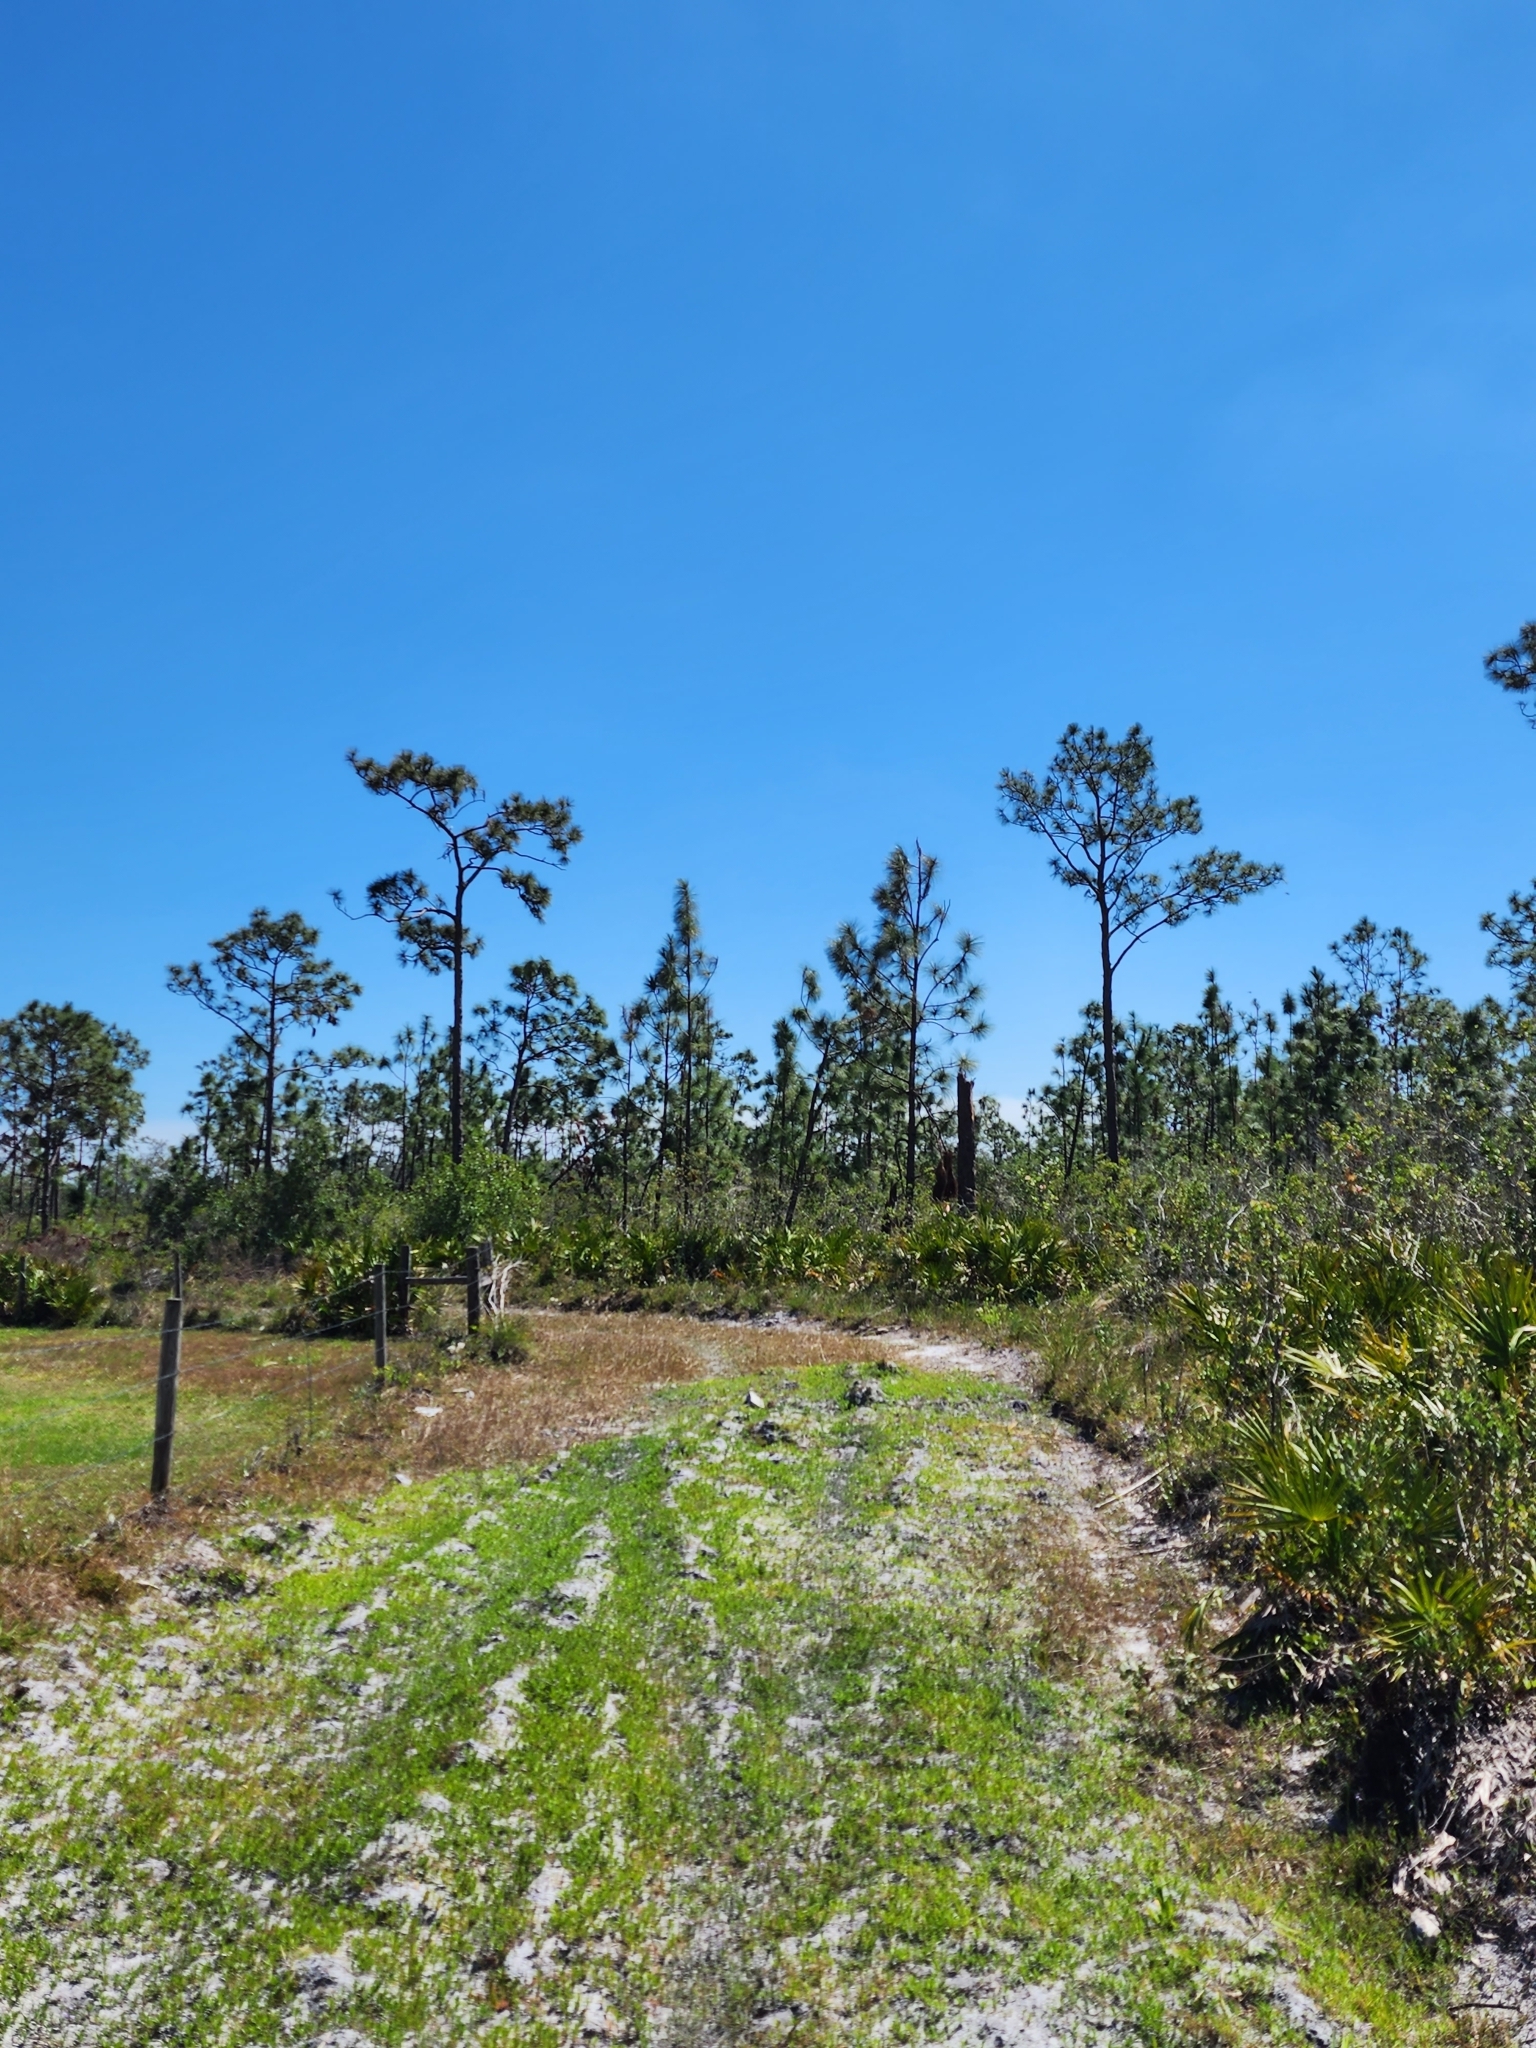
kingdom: Plantae
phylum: Tracheophyta
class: Pinopsida
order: Pinales
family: Pinaceae
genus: Pinus
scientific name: Pinus palustris
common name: Longleaf pine
